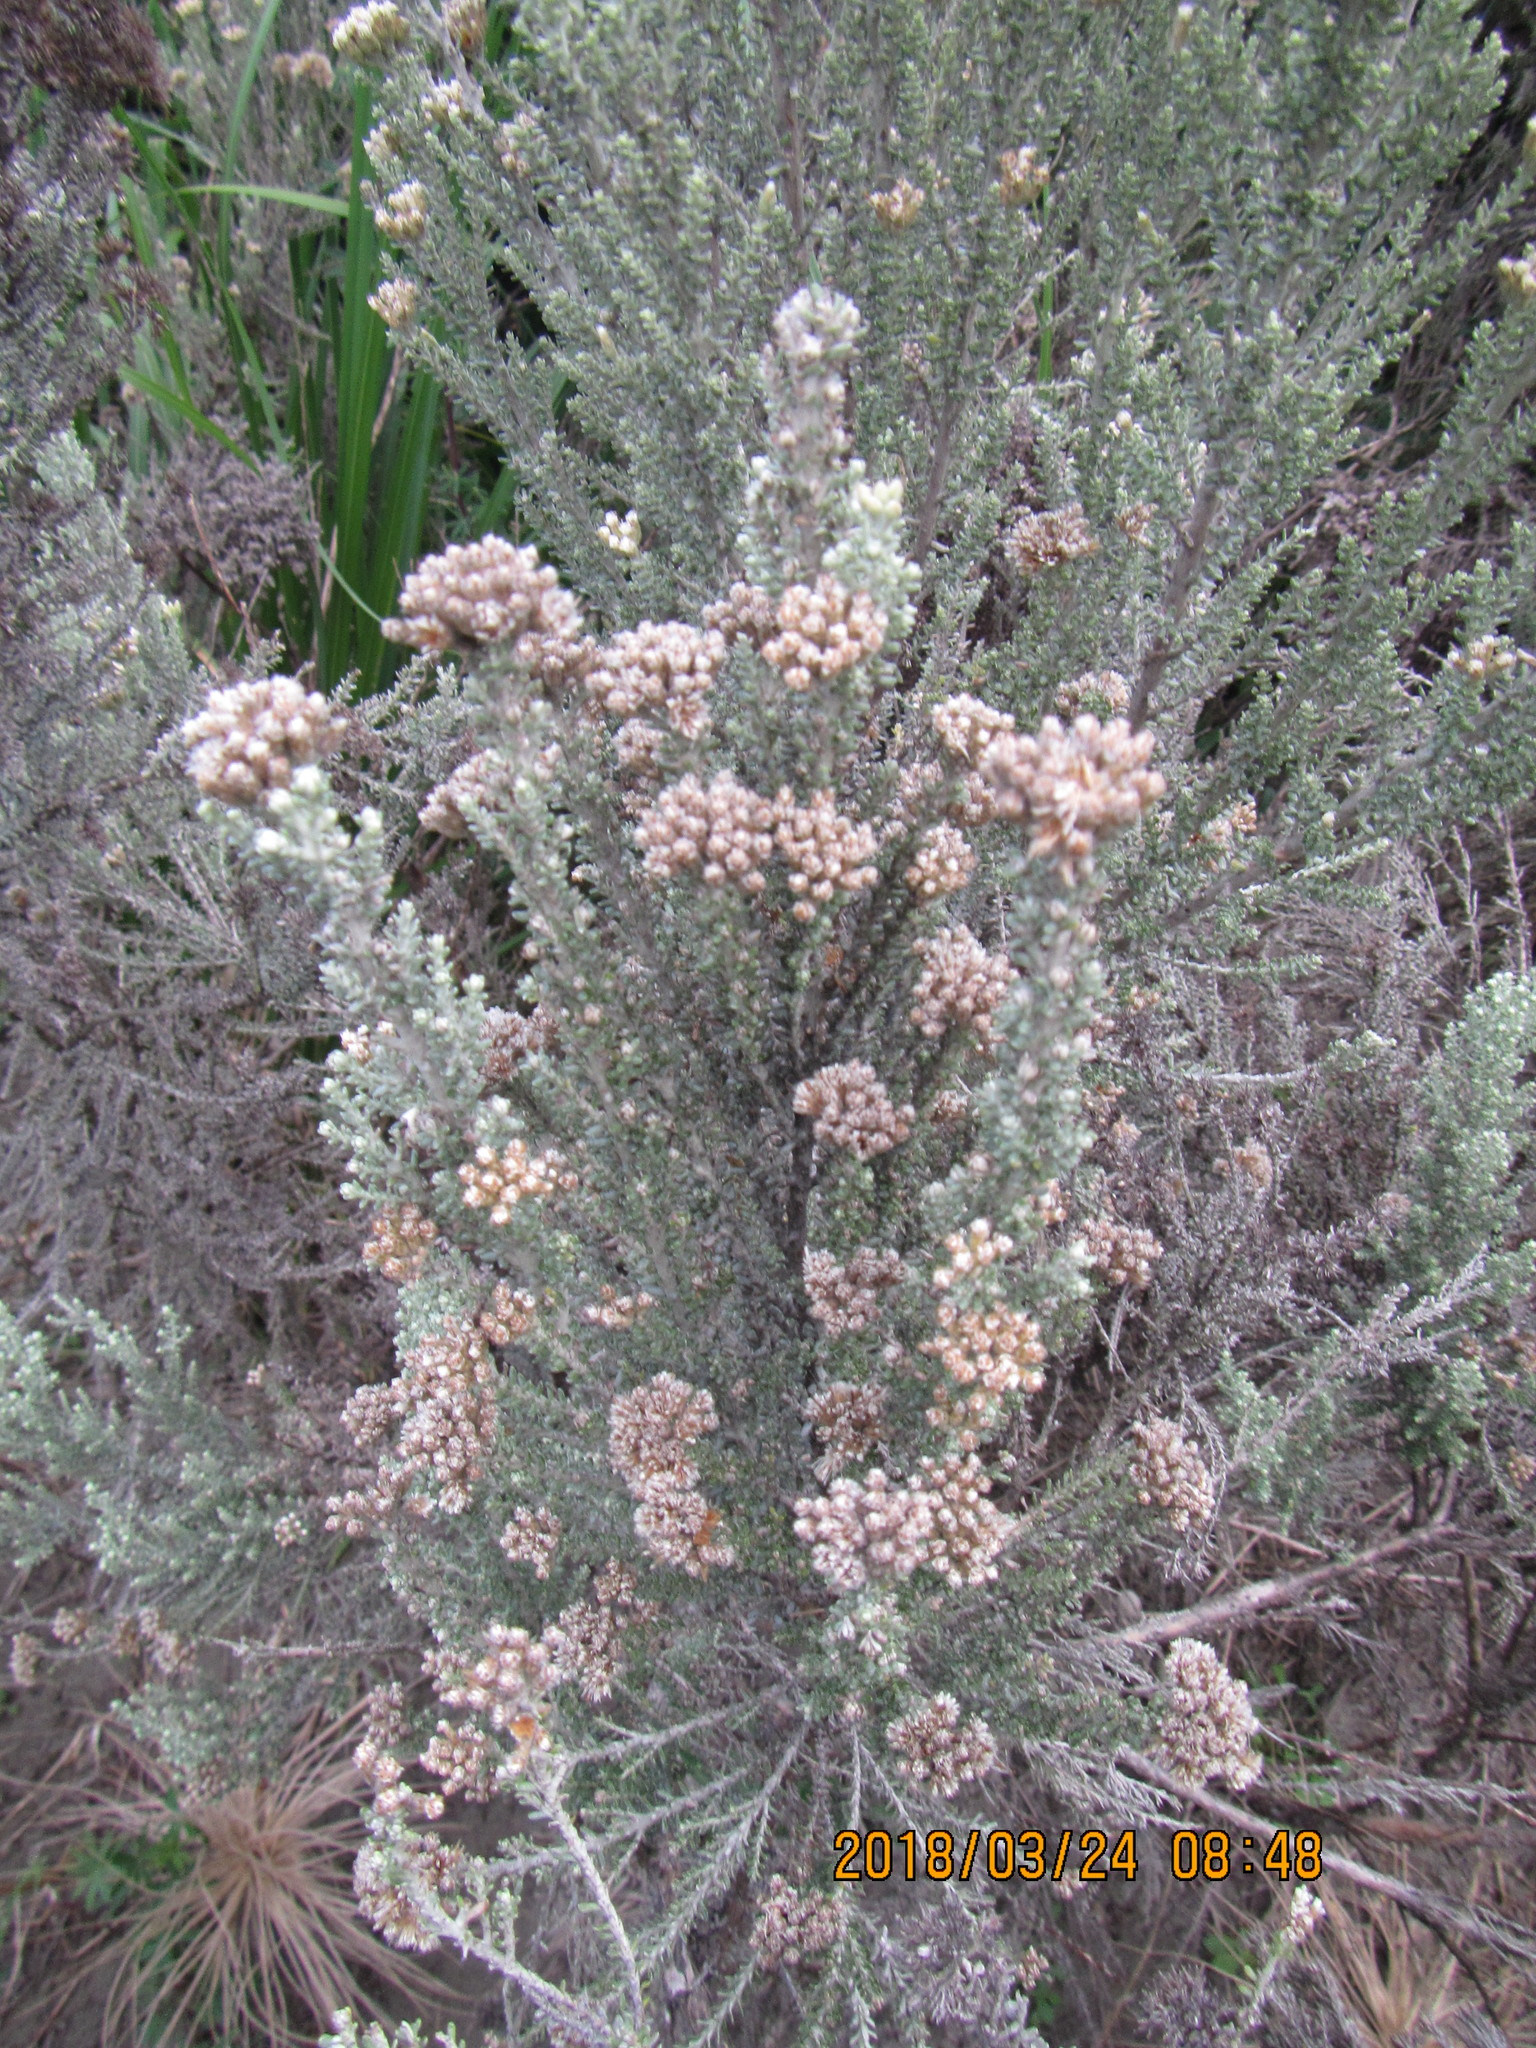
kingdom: Plantae
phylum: Tracheophyta
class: Magnoliopsida
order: Asterales
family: Asteraceae
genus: Ozothamnus
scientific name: Ozothamnus leptophyllus
